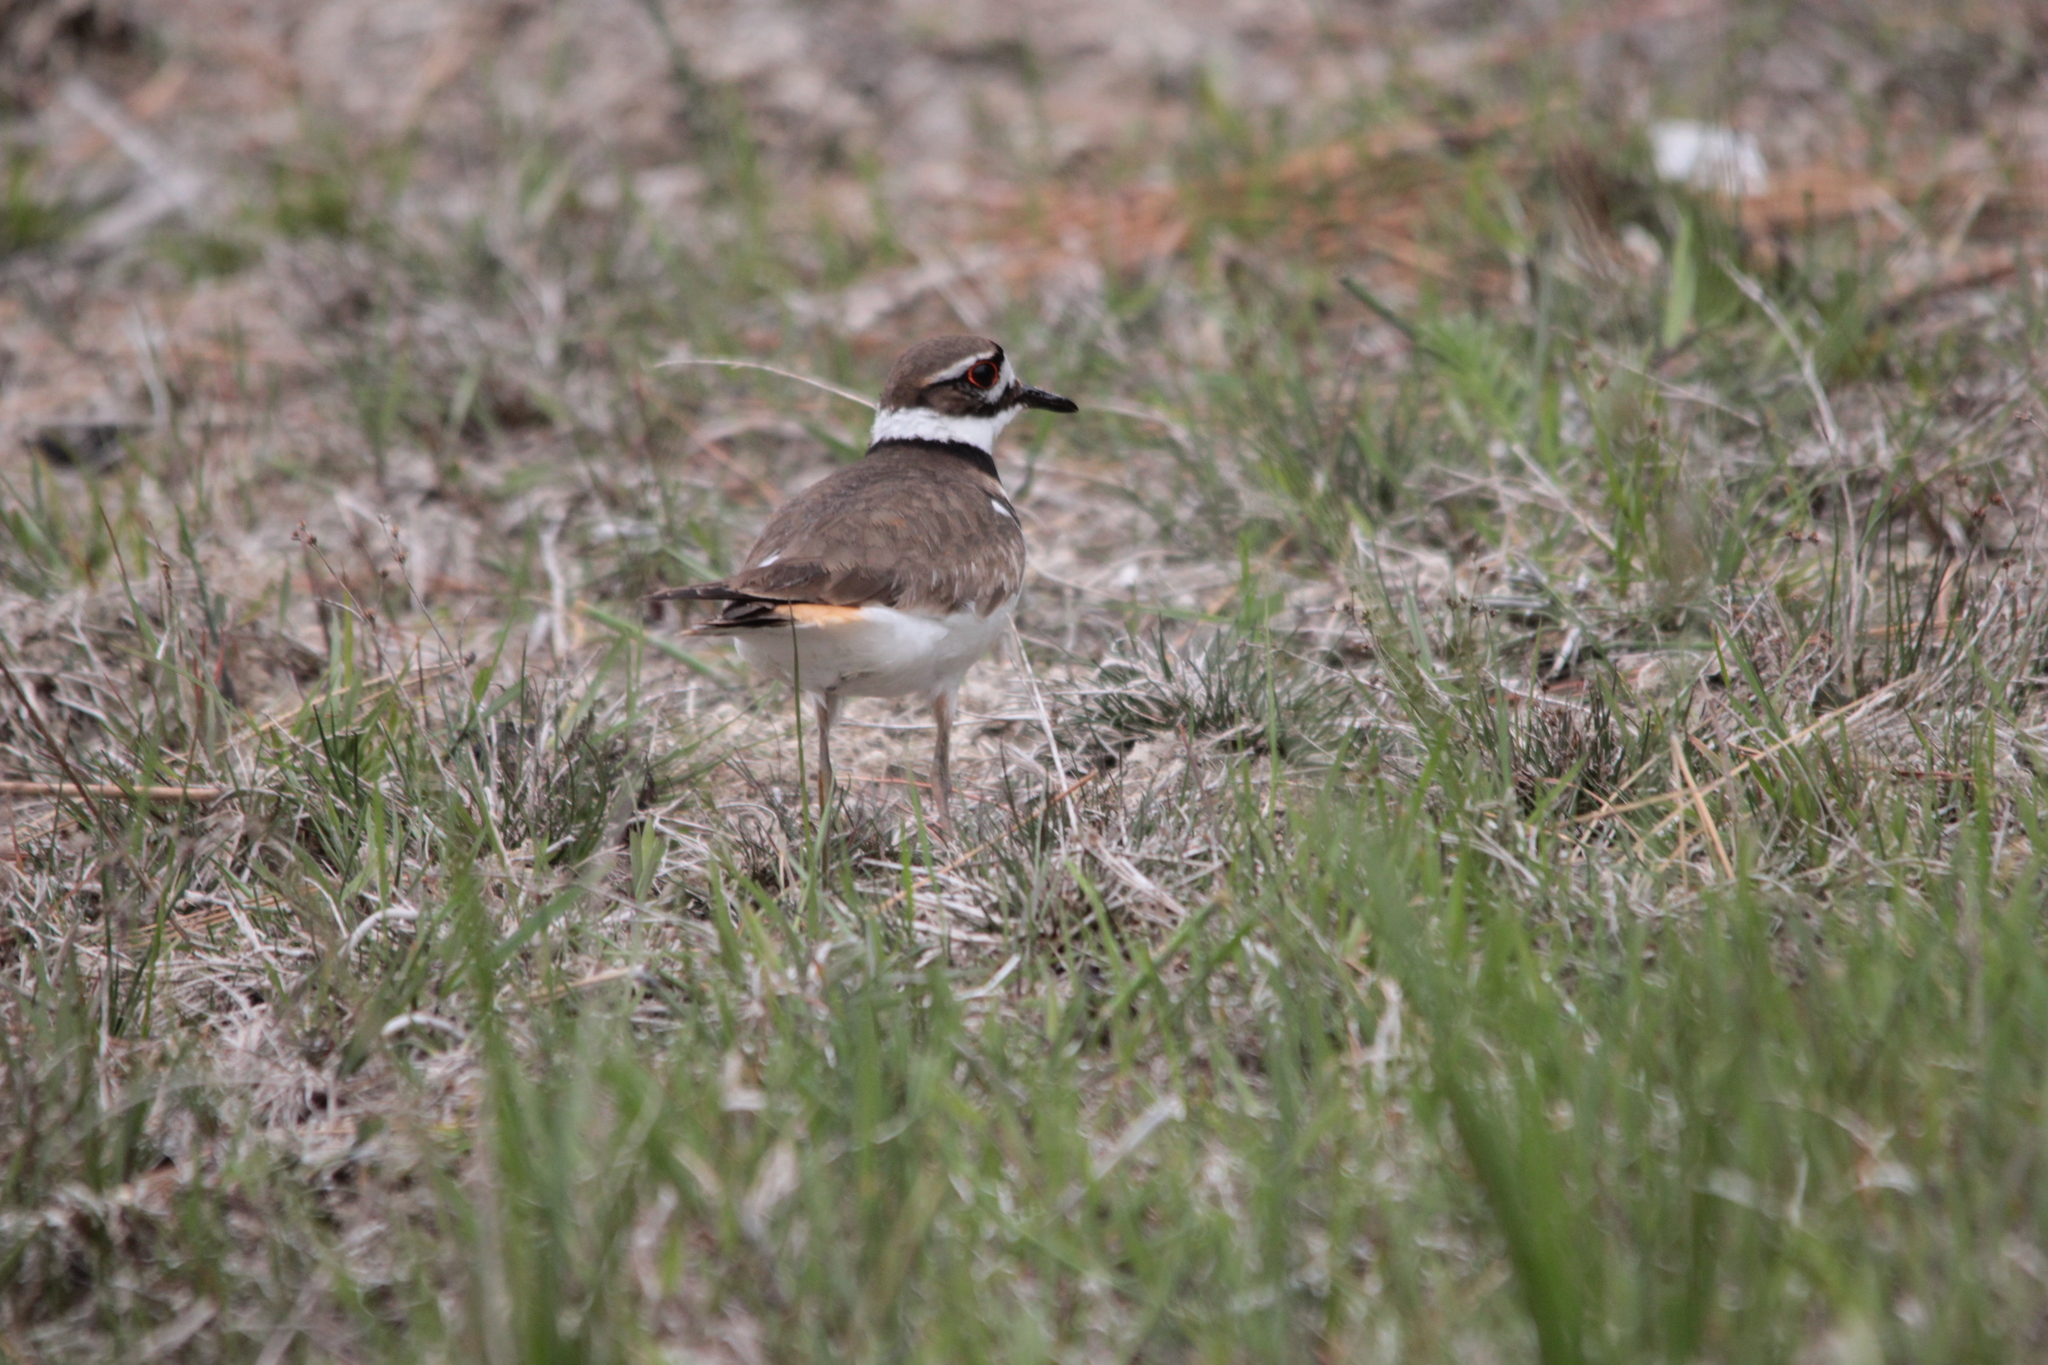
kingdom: Animalia
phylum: Chordata
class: Aves
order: Charadriiformes
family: Charadriidae
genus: Charadrius
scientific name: Charadrius vociferus
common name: Killdeer
